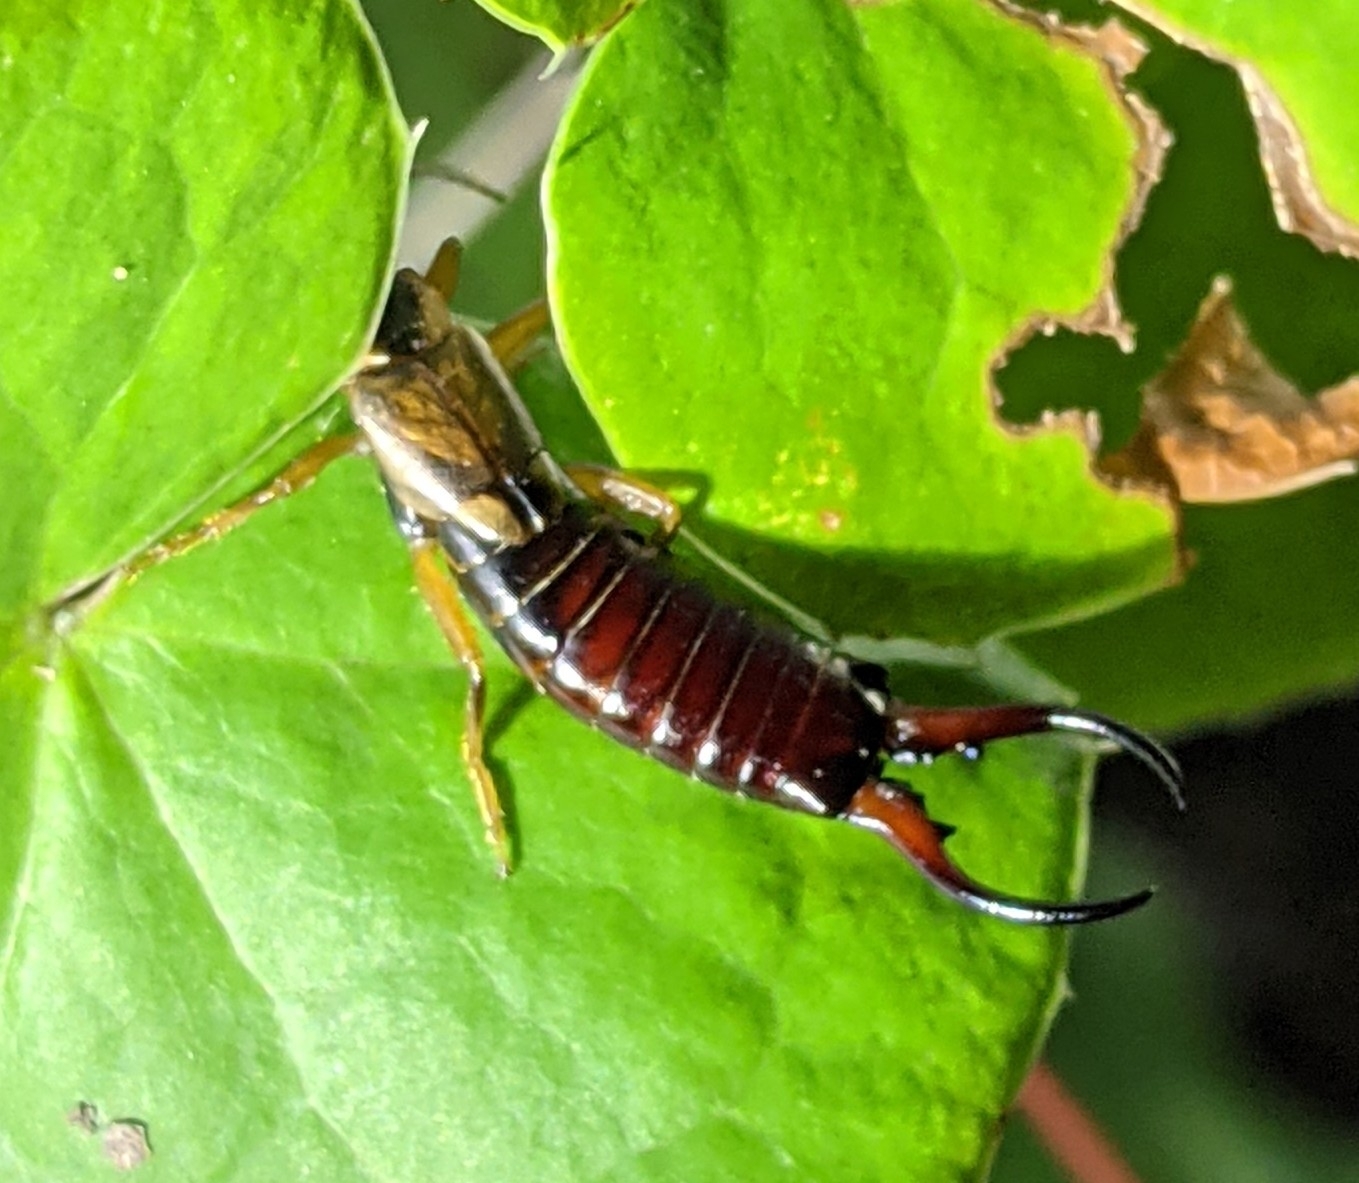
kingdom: Animalia
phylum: Arthropoda
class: Insecta
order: Dermaptera
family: Forficulidae
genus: Forficula
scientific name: Forficula
